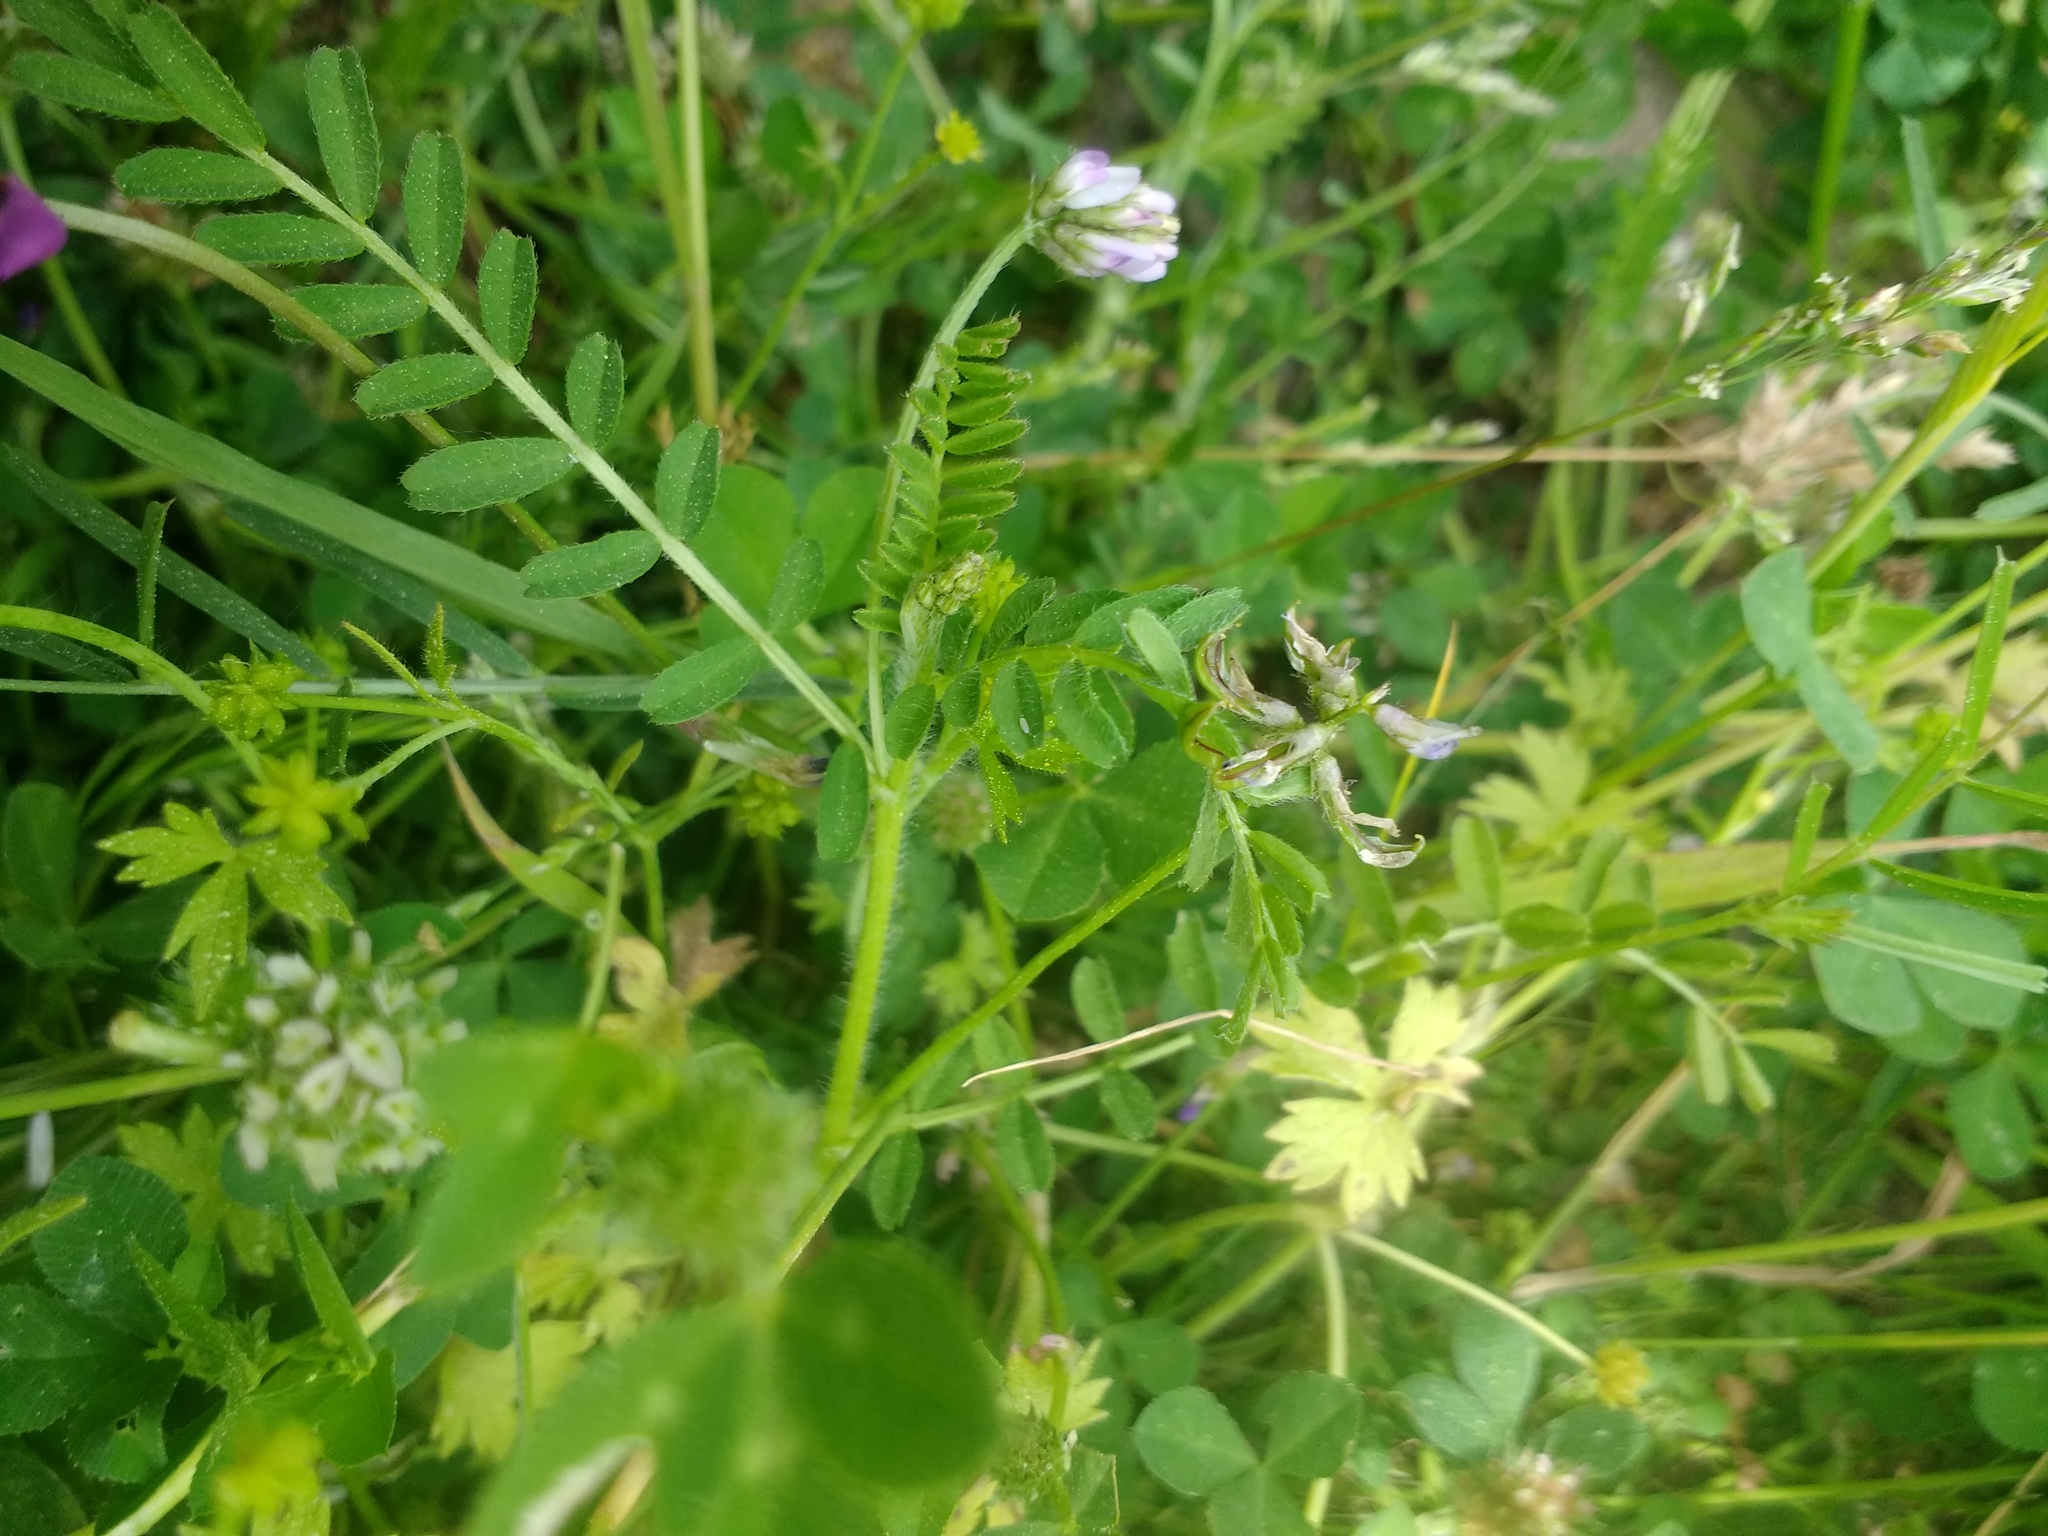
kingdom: Plantae
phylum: Tracheophyta
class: Magnoliopsida
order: Fabales
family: Fabaceae
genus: Biserrula
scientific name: Biserrula pelecinus
